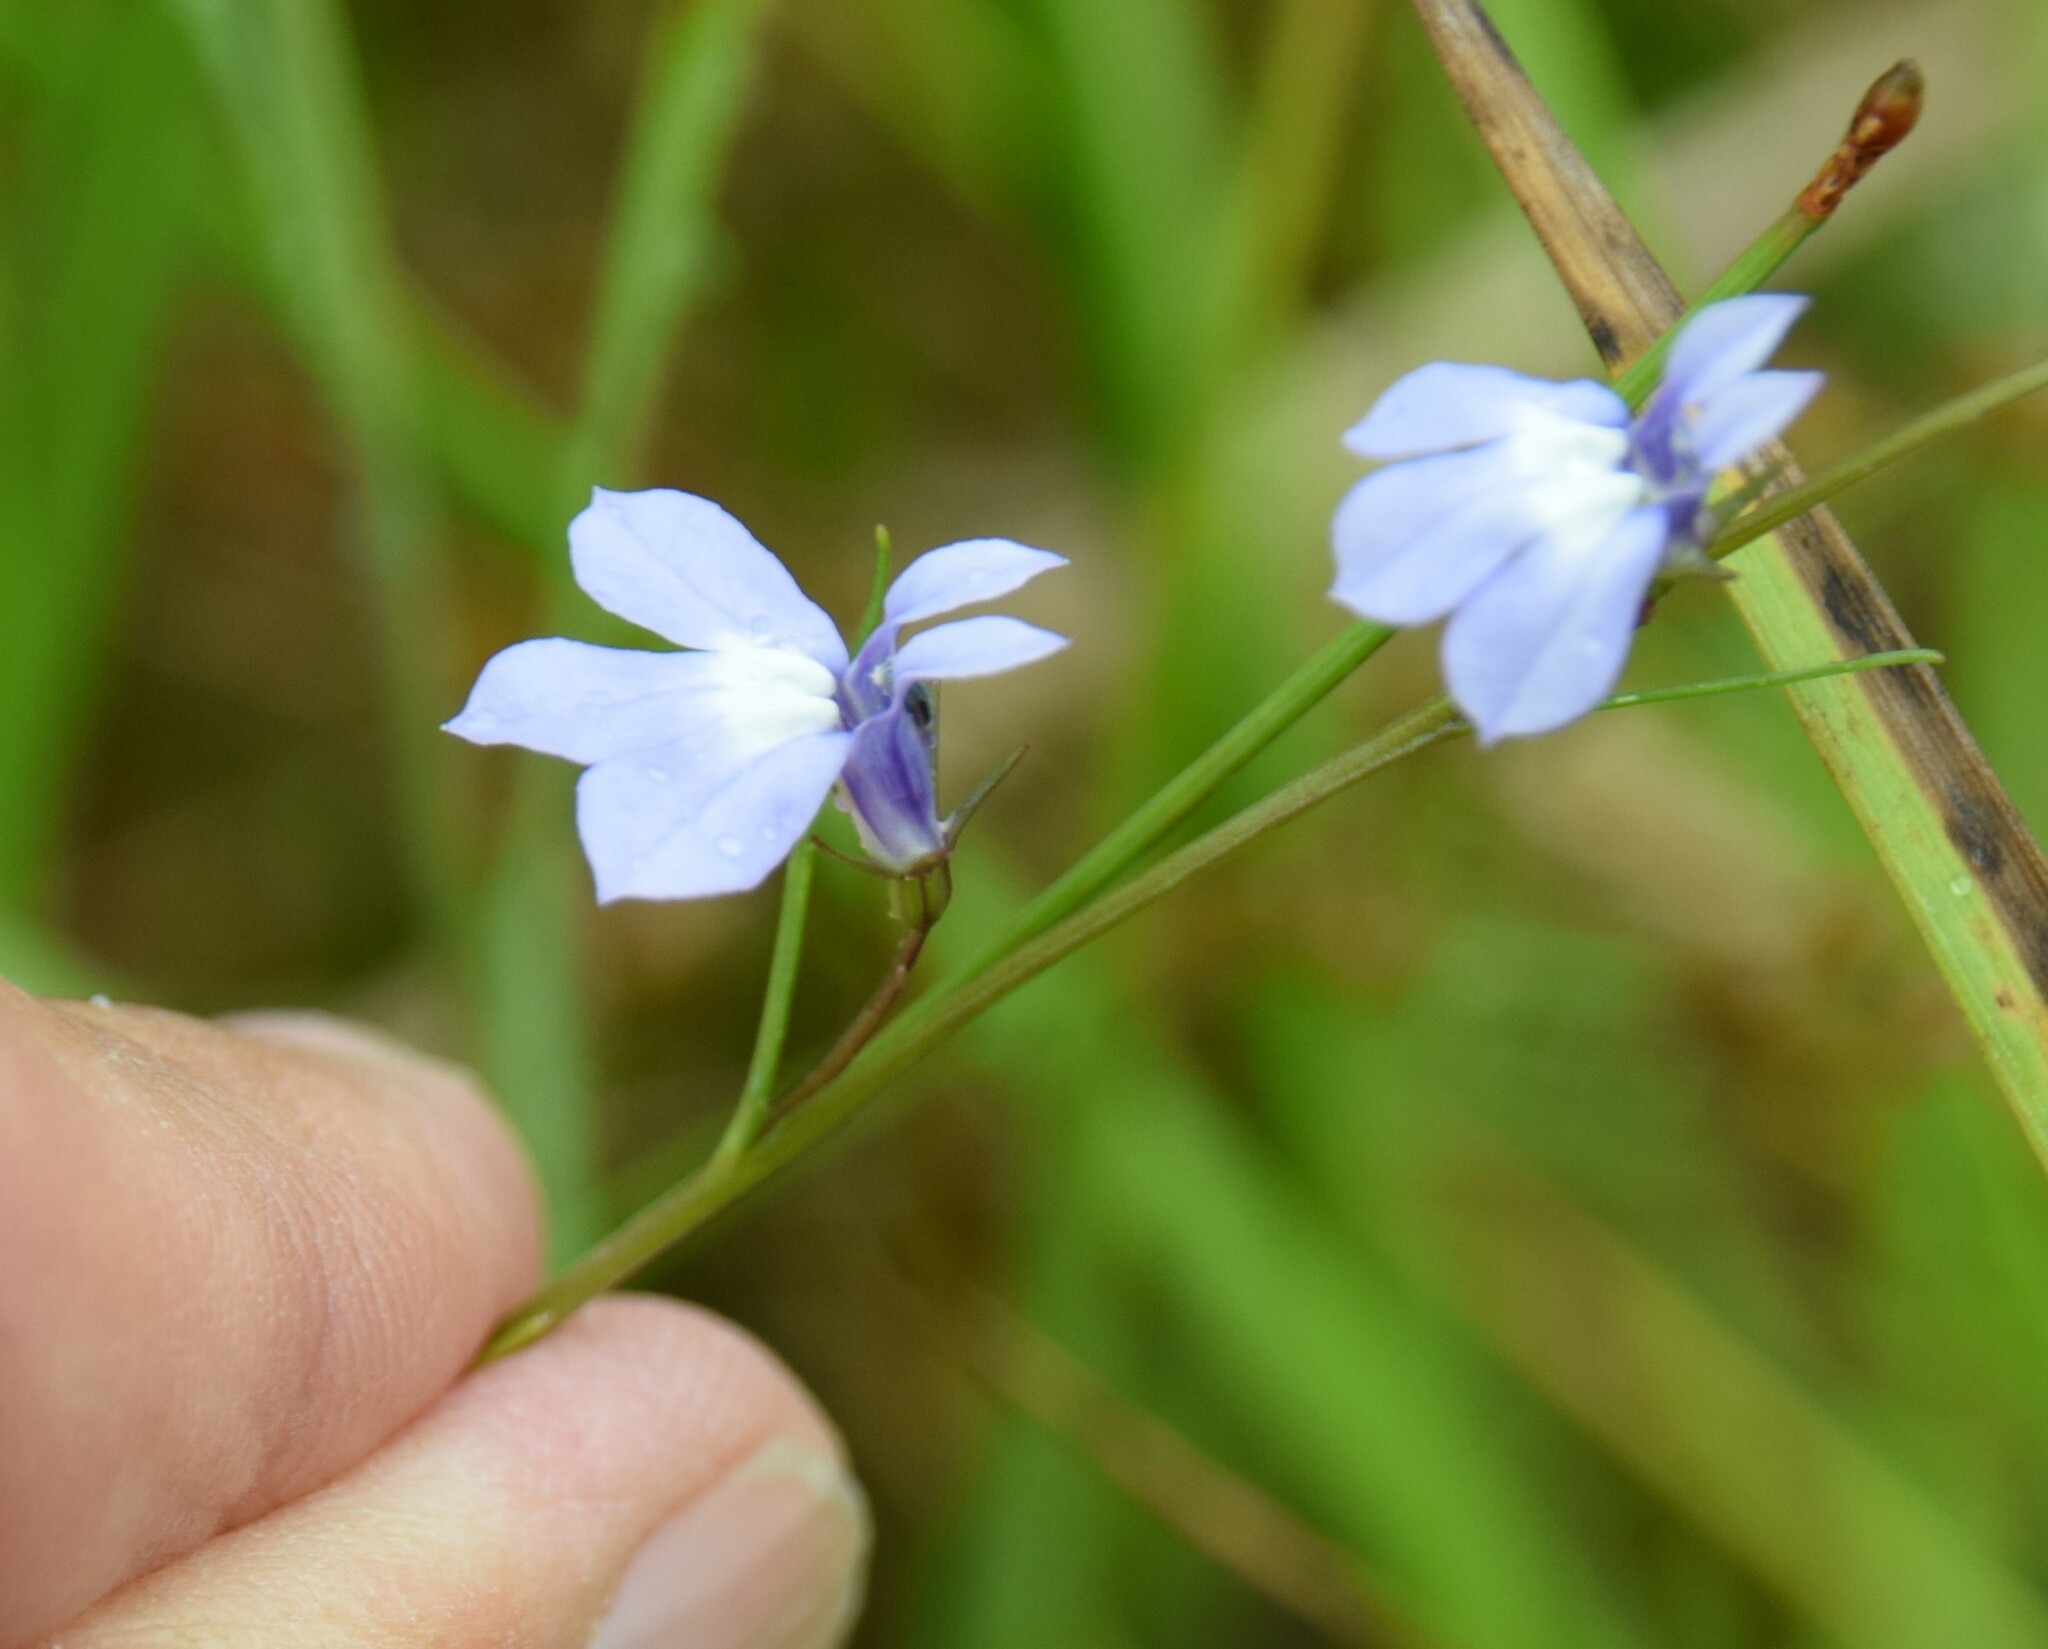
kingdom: Plantae
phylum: Tracheophyta
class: Magnoliopsida
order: Asterales
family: Campanulaceae
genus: Lobelia
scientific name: Lobelia kalmii
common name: Kalm's lobelia
